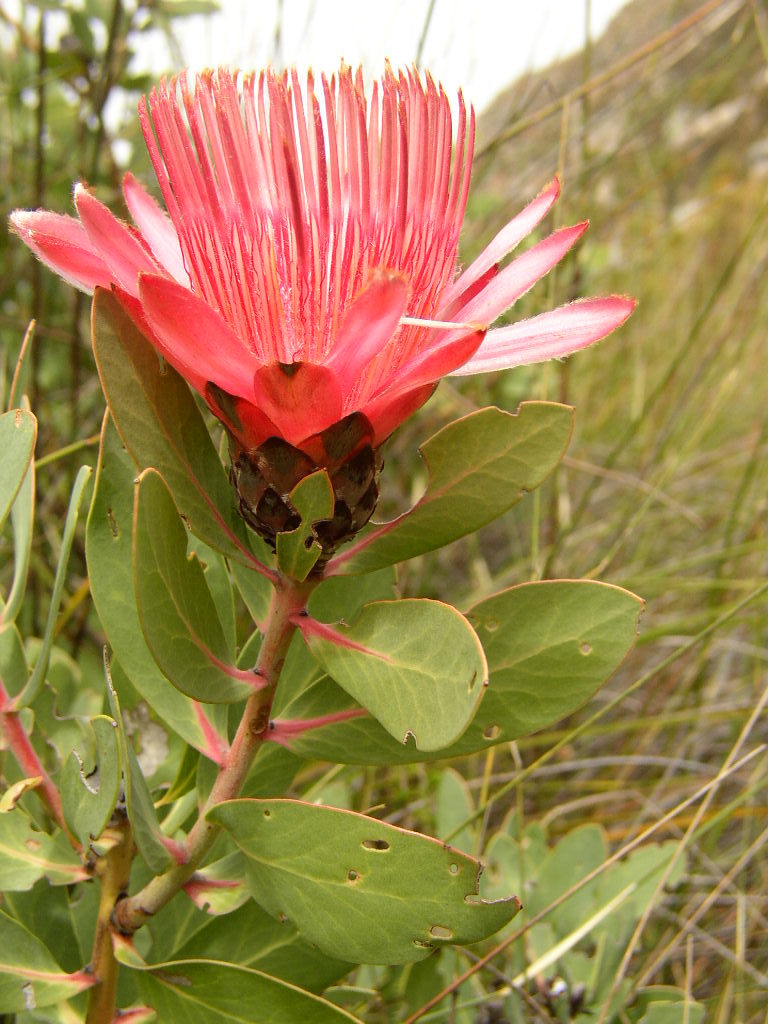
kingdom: Plantae
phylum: Tracheophyta
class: Magnoliopsida
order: Proteales
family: Proteaceae
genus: Protea
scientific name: Protea
